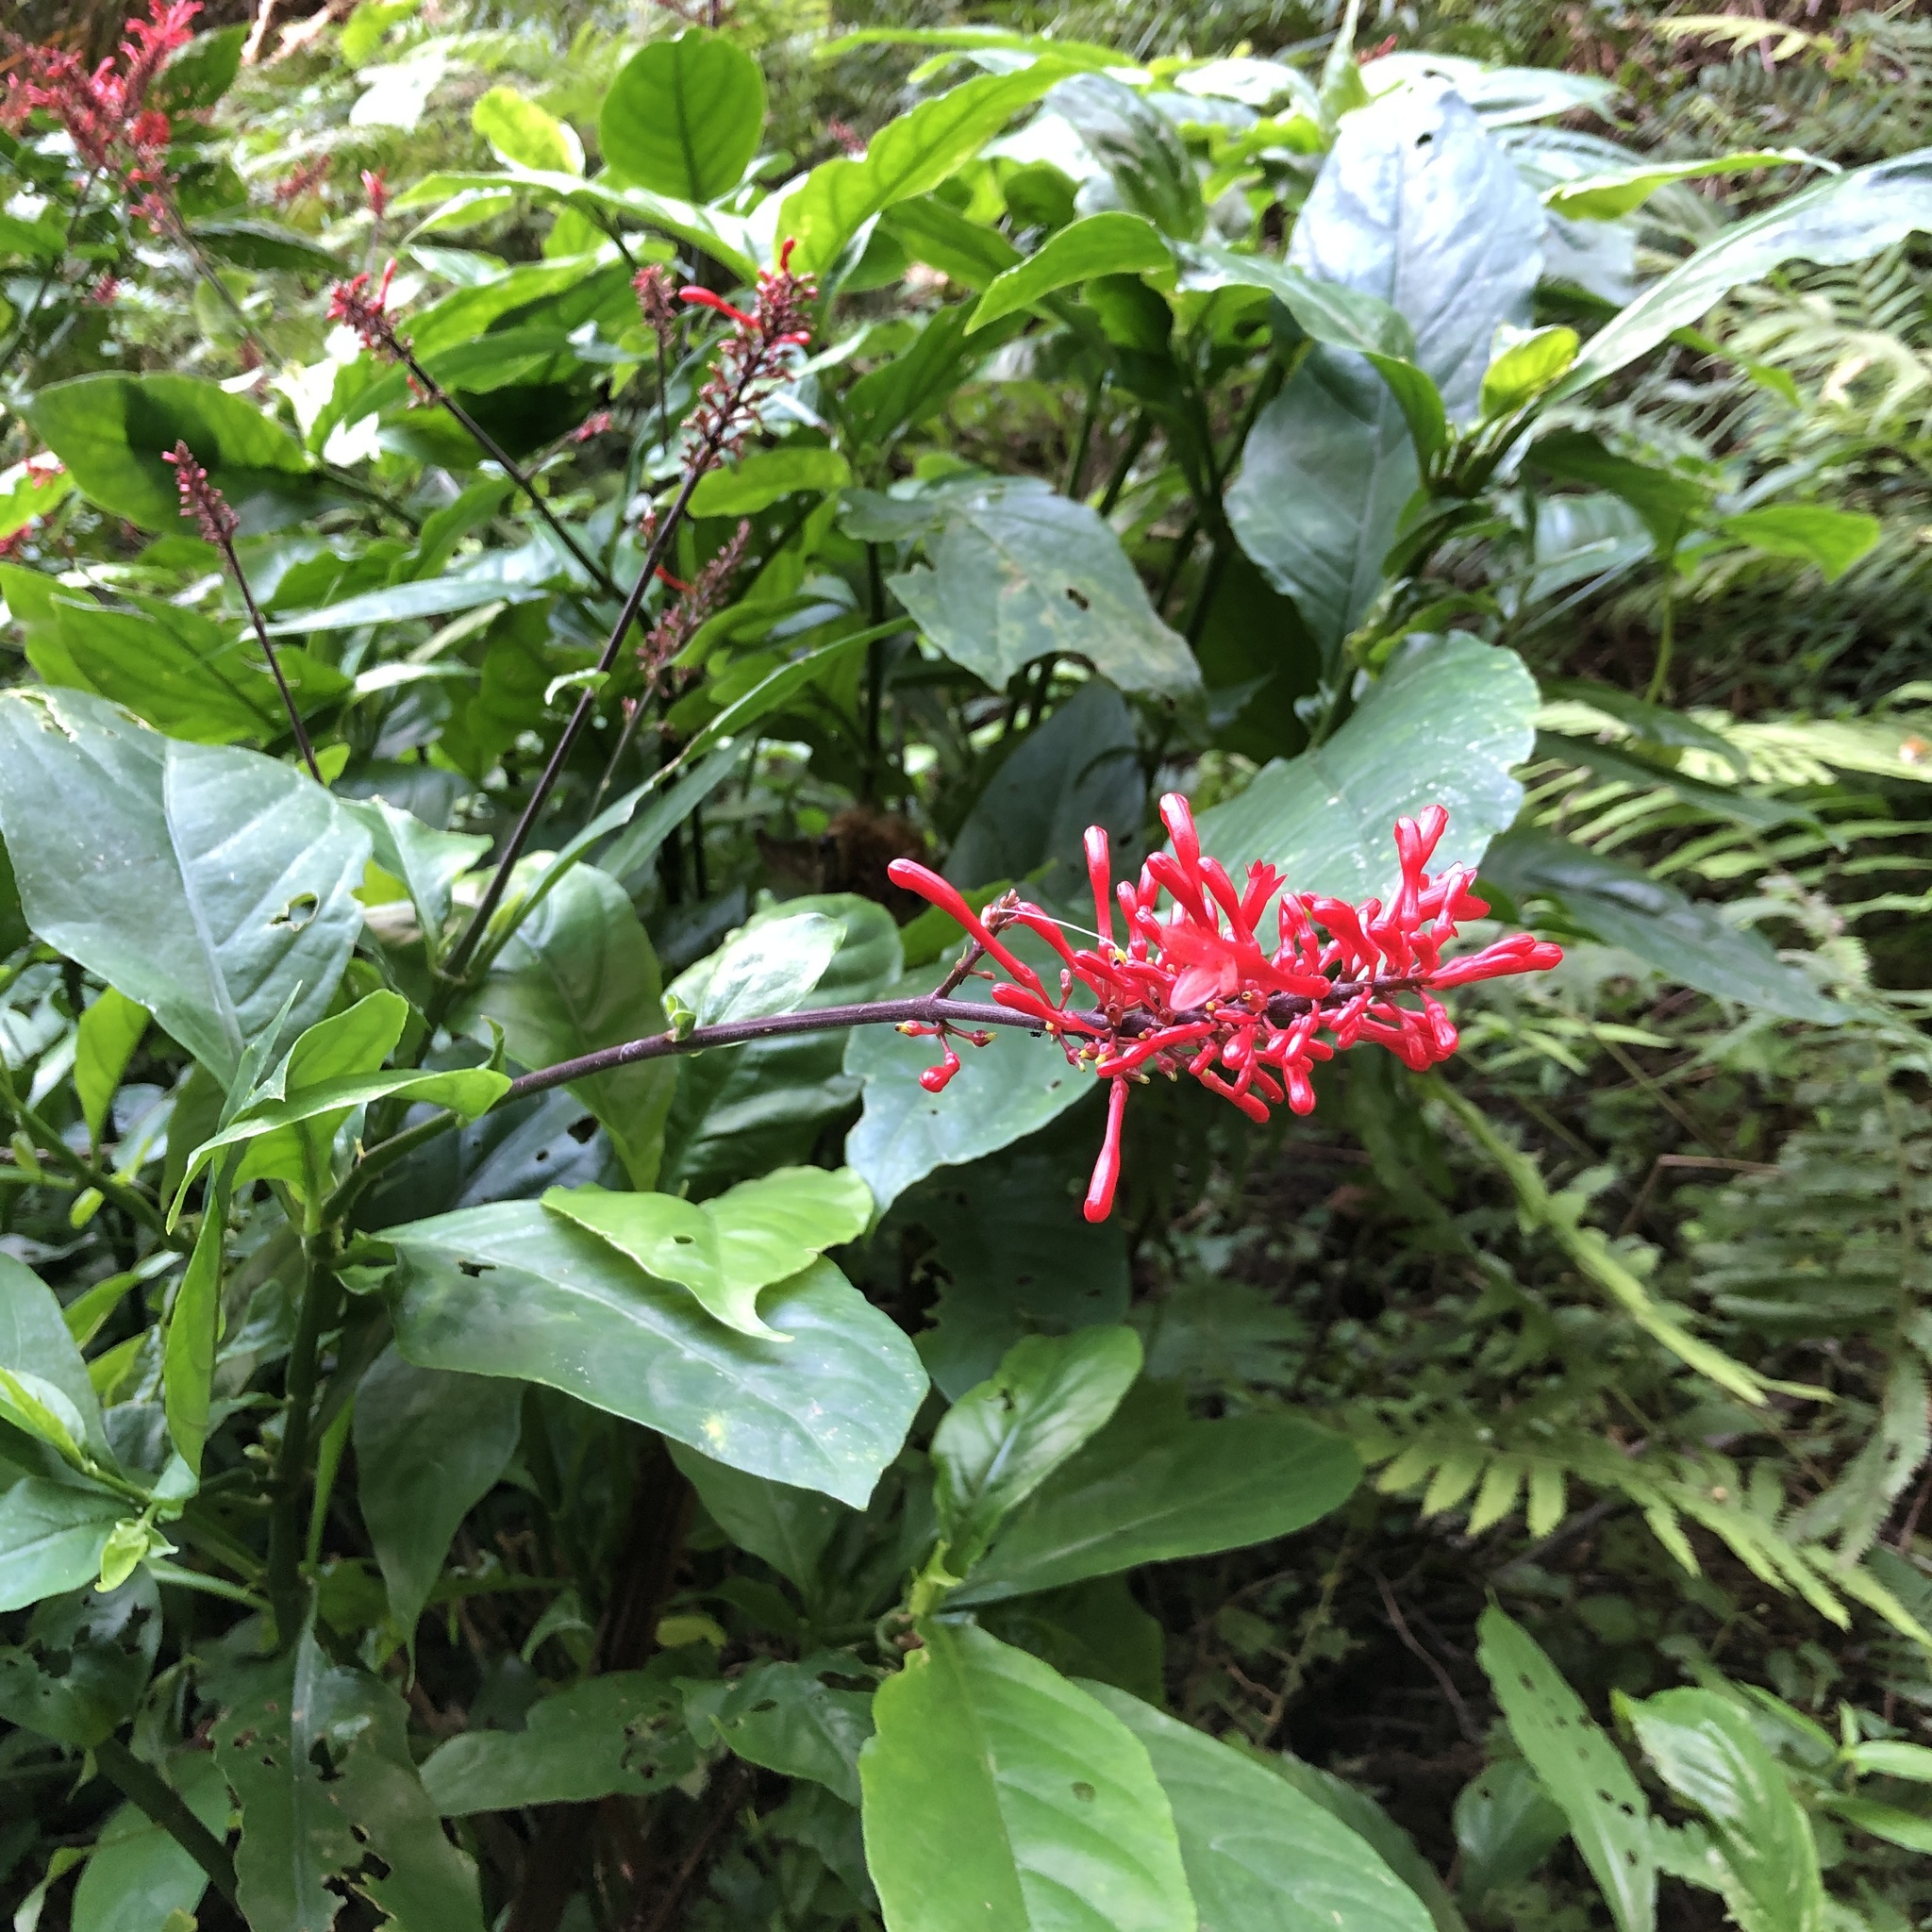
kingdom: Plantae
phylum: Tracheophyta
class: Magnoliopsida
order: Lamiales
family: Acanthaceae
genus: Odontonema
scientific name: Odontonema tubaeforme
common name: Firespike
